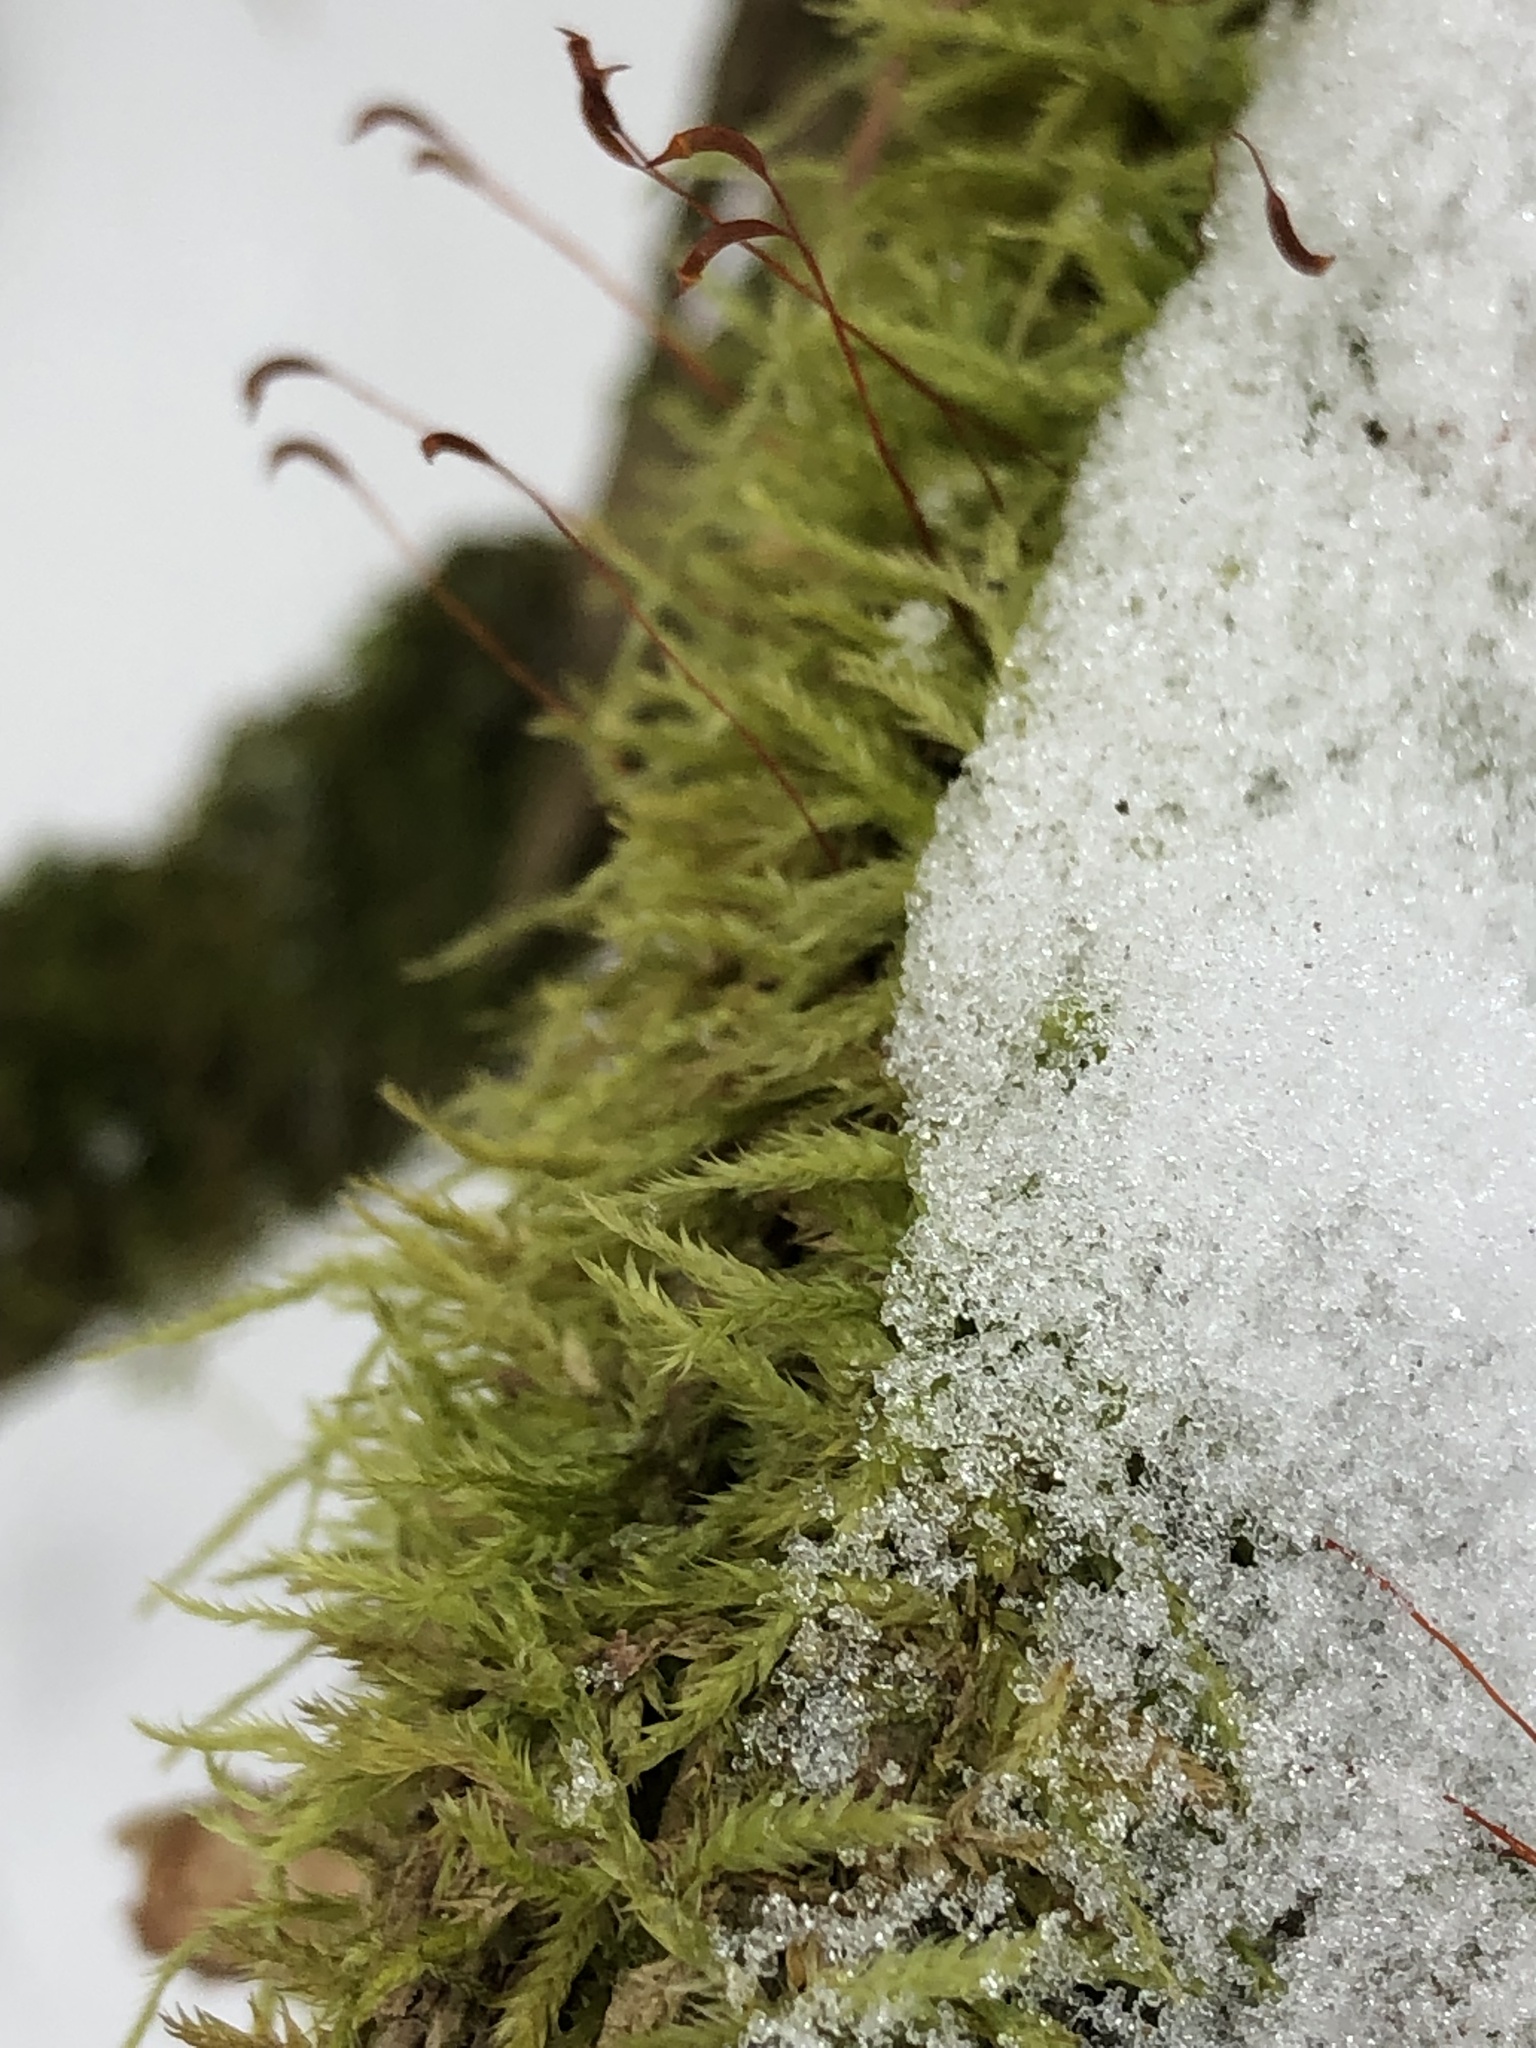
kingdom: Plantae
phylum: Bryophyta
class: Bryopsida
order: Hypnales
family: Callicladiaceae
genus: Callicladium
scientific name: Callicladium haldanianum
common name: Beautiful branch moss
